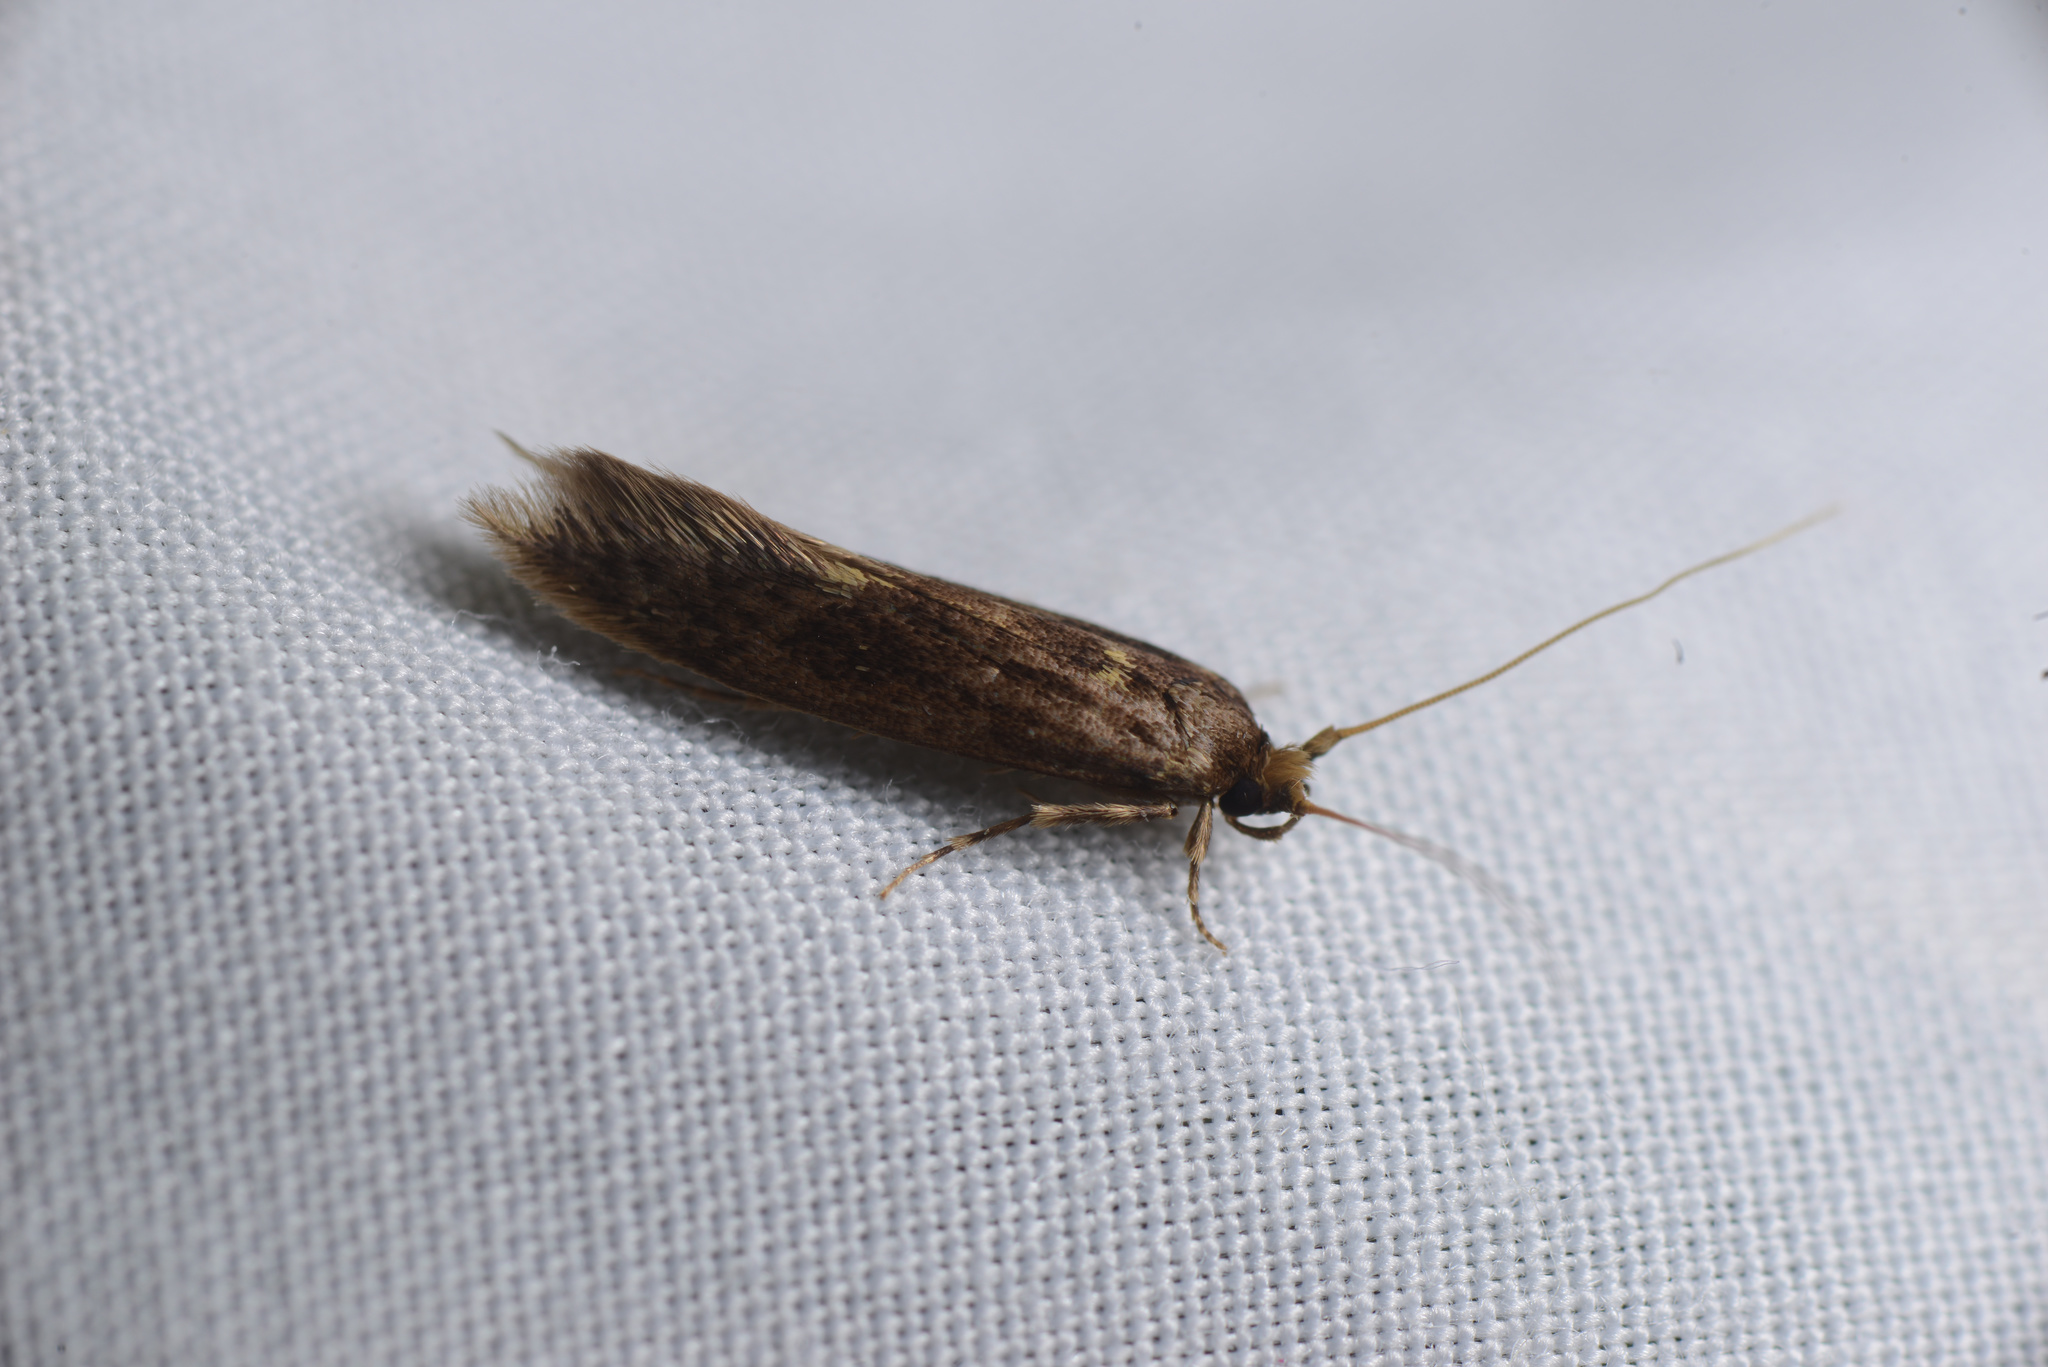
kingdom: Animalia
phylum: Arthropoda
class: Insecta
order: Lepidoptera
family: Tineidae
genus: Opogona
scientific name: Opogona omoscopa
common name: Moth
